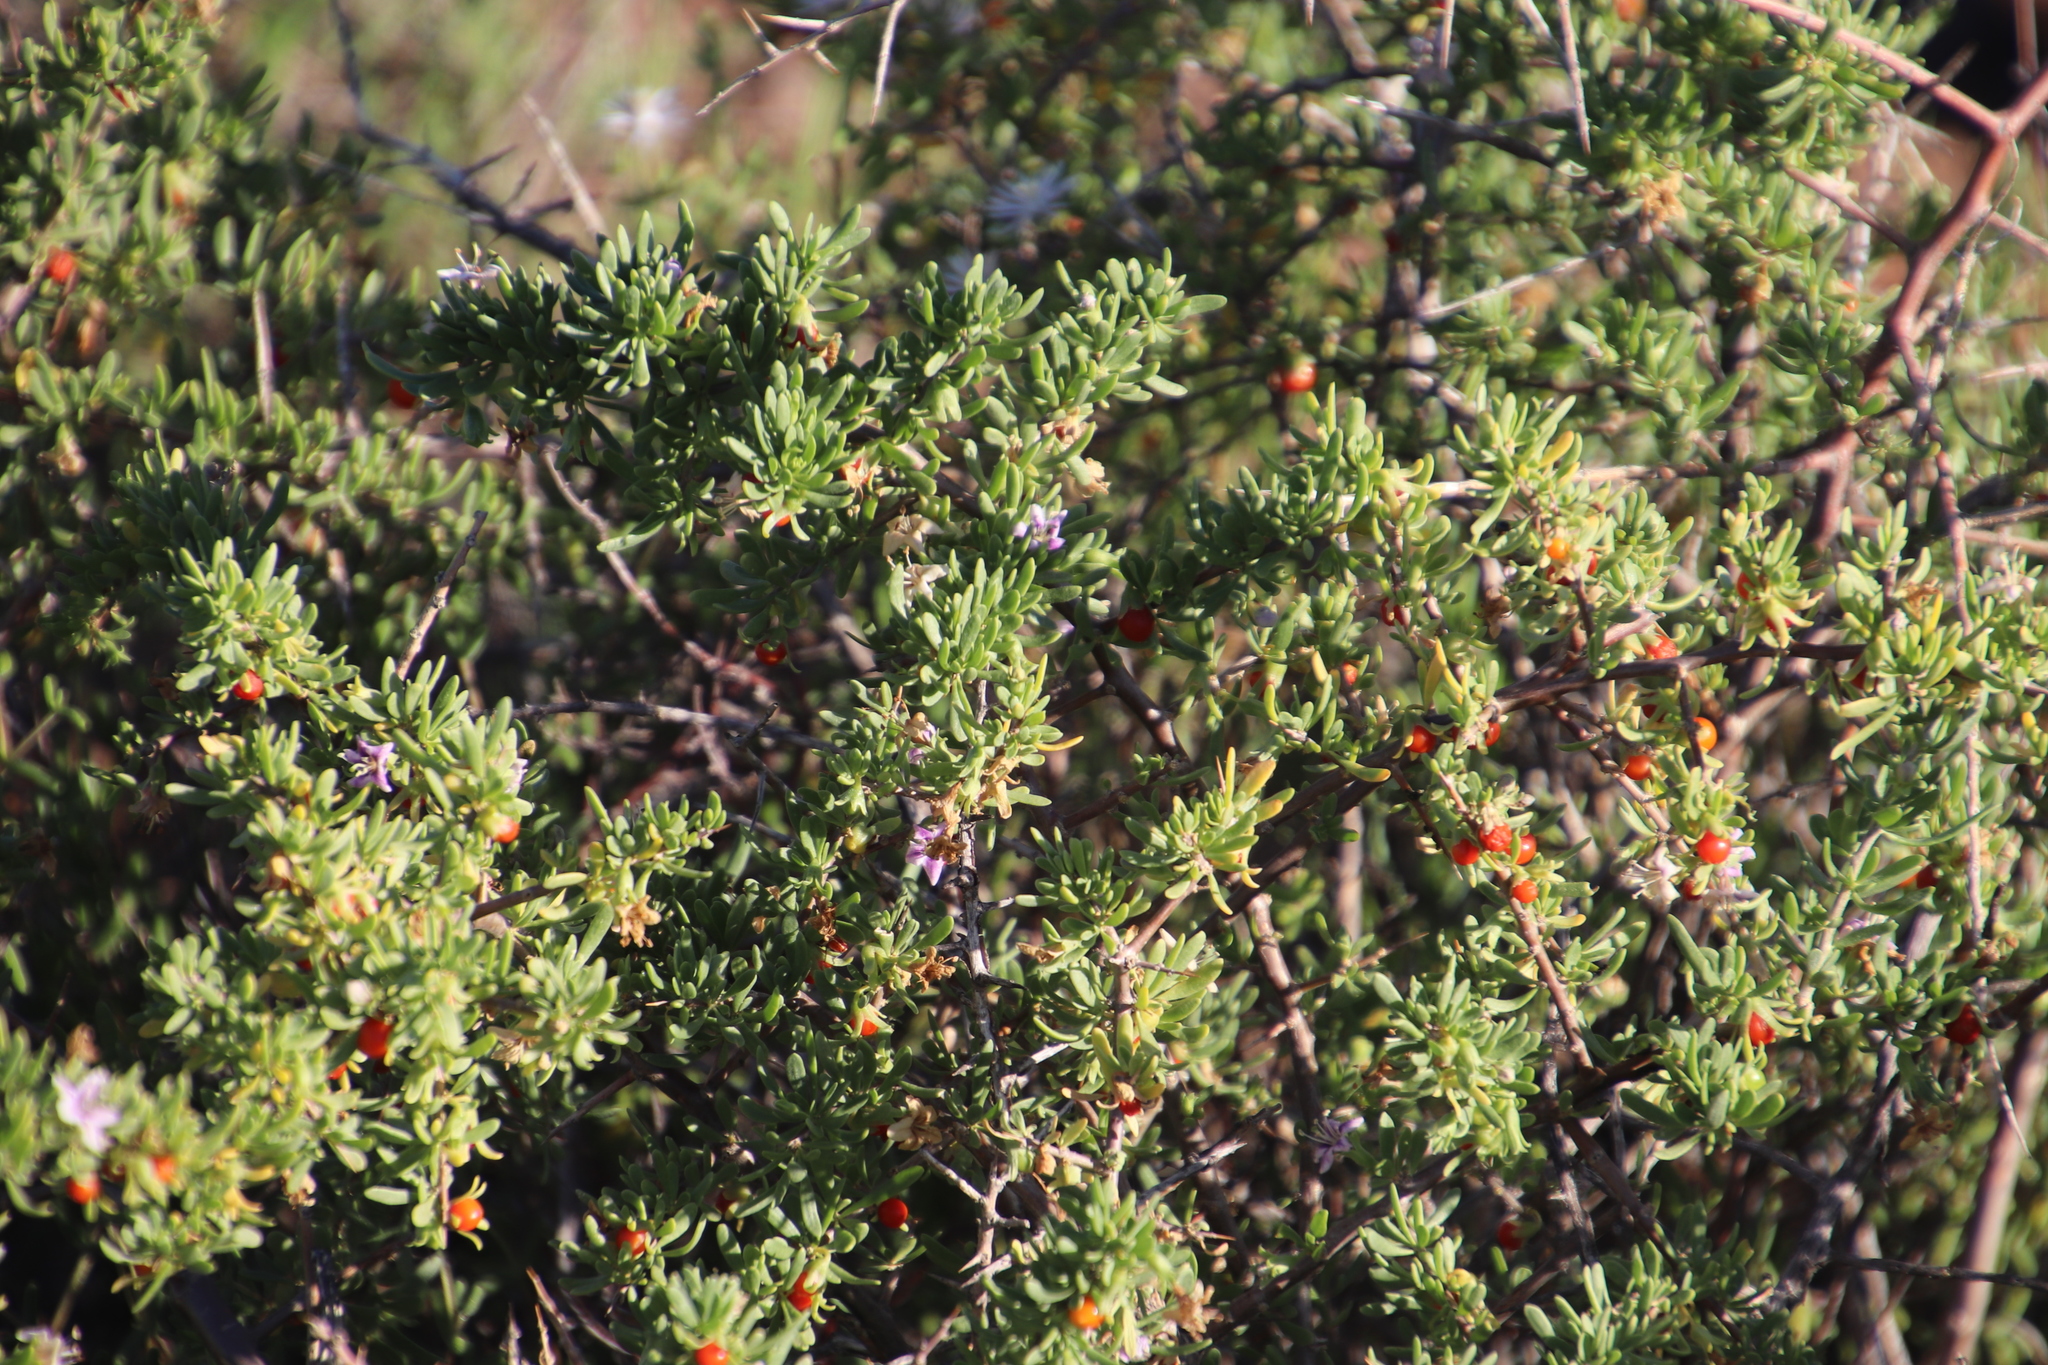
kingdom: Plantae
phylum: Tracheophyta
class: Magnoliopsida
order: Solanales
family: Solanaceae
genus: Lycium
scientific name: Lycium schizocalyx
